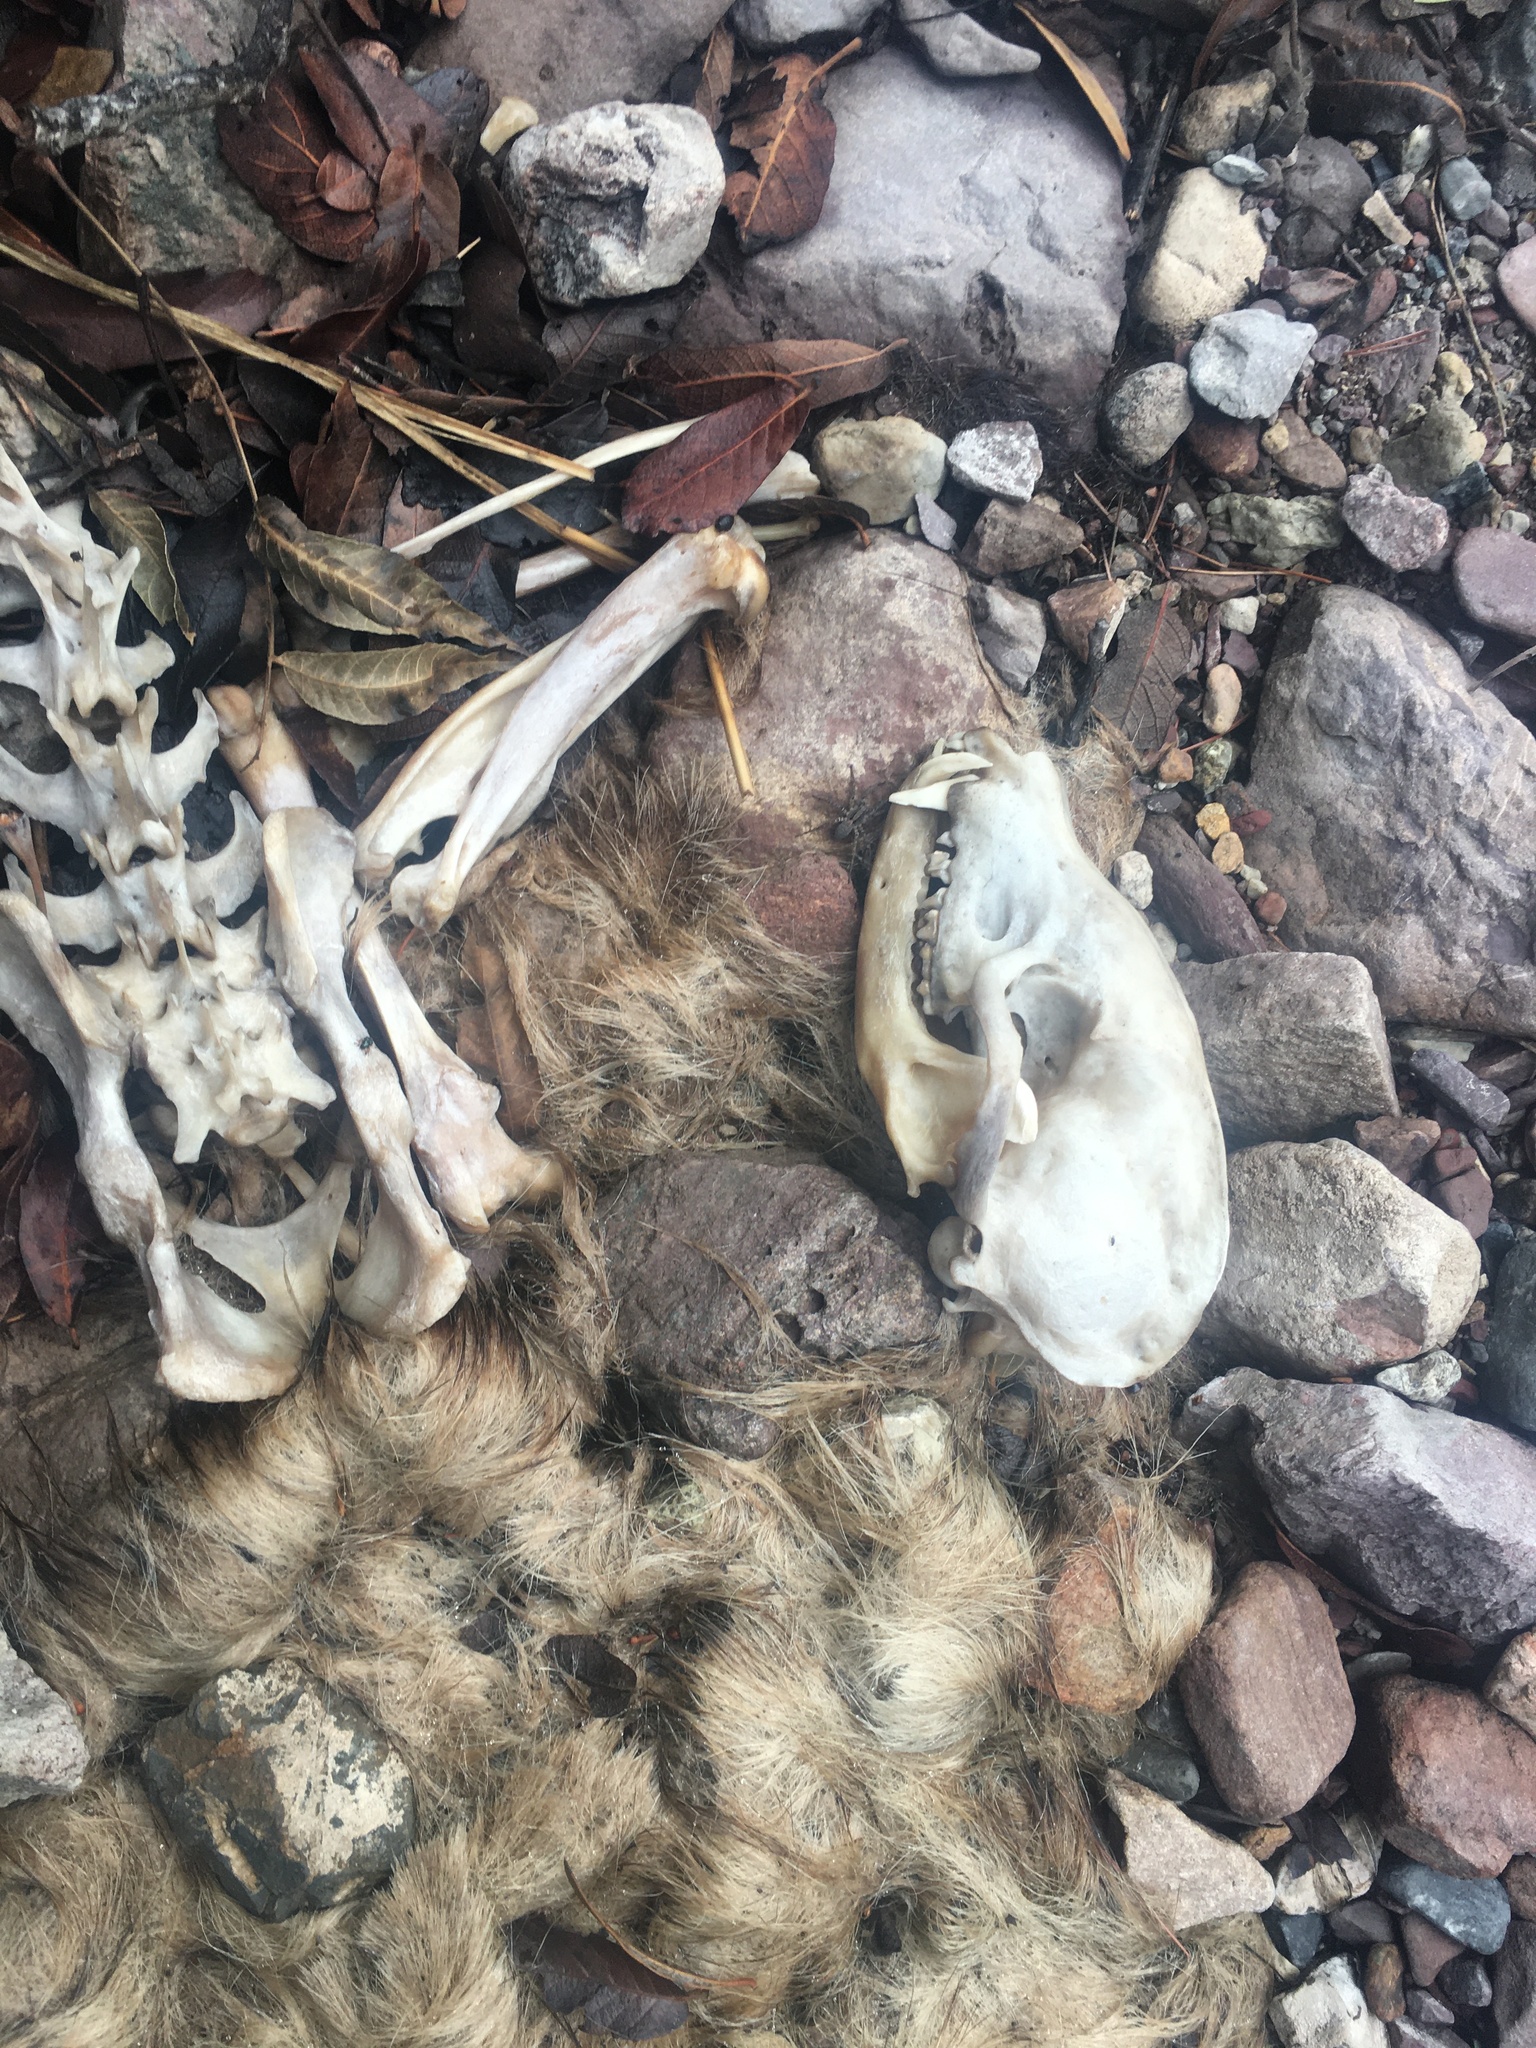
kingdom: Animalia
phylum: Chordata
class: Mammalia
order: Carnivora
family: Procyonidae
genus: Nasua
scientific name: Nasua narica
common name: White-nosed coati
